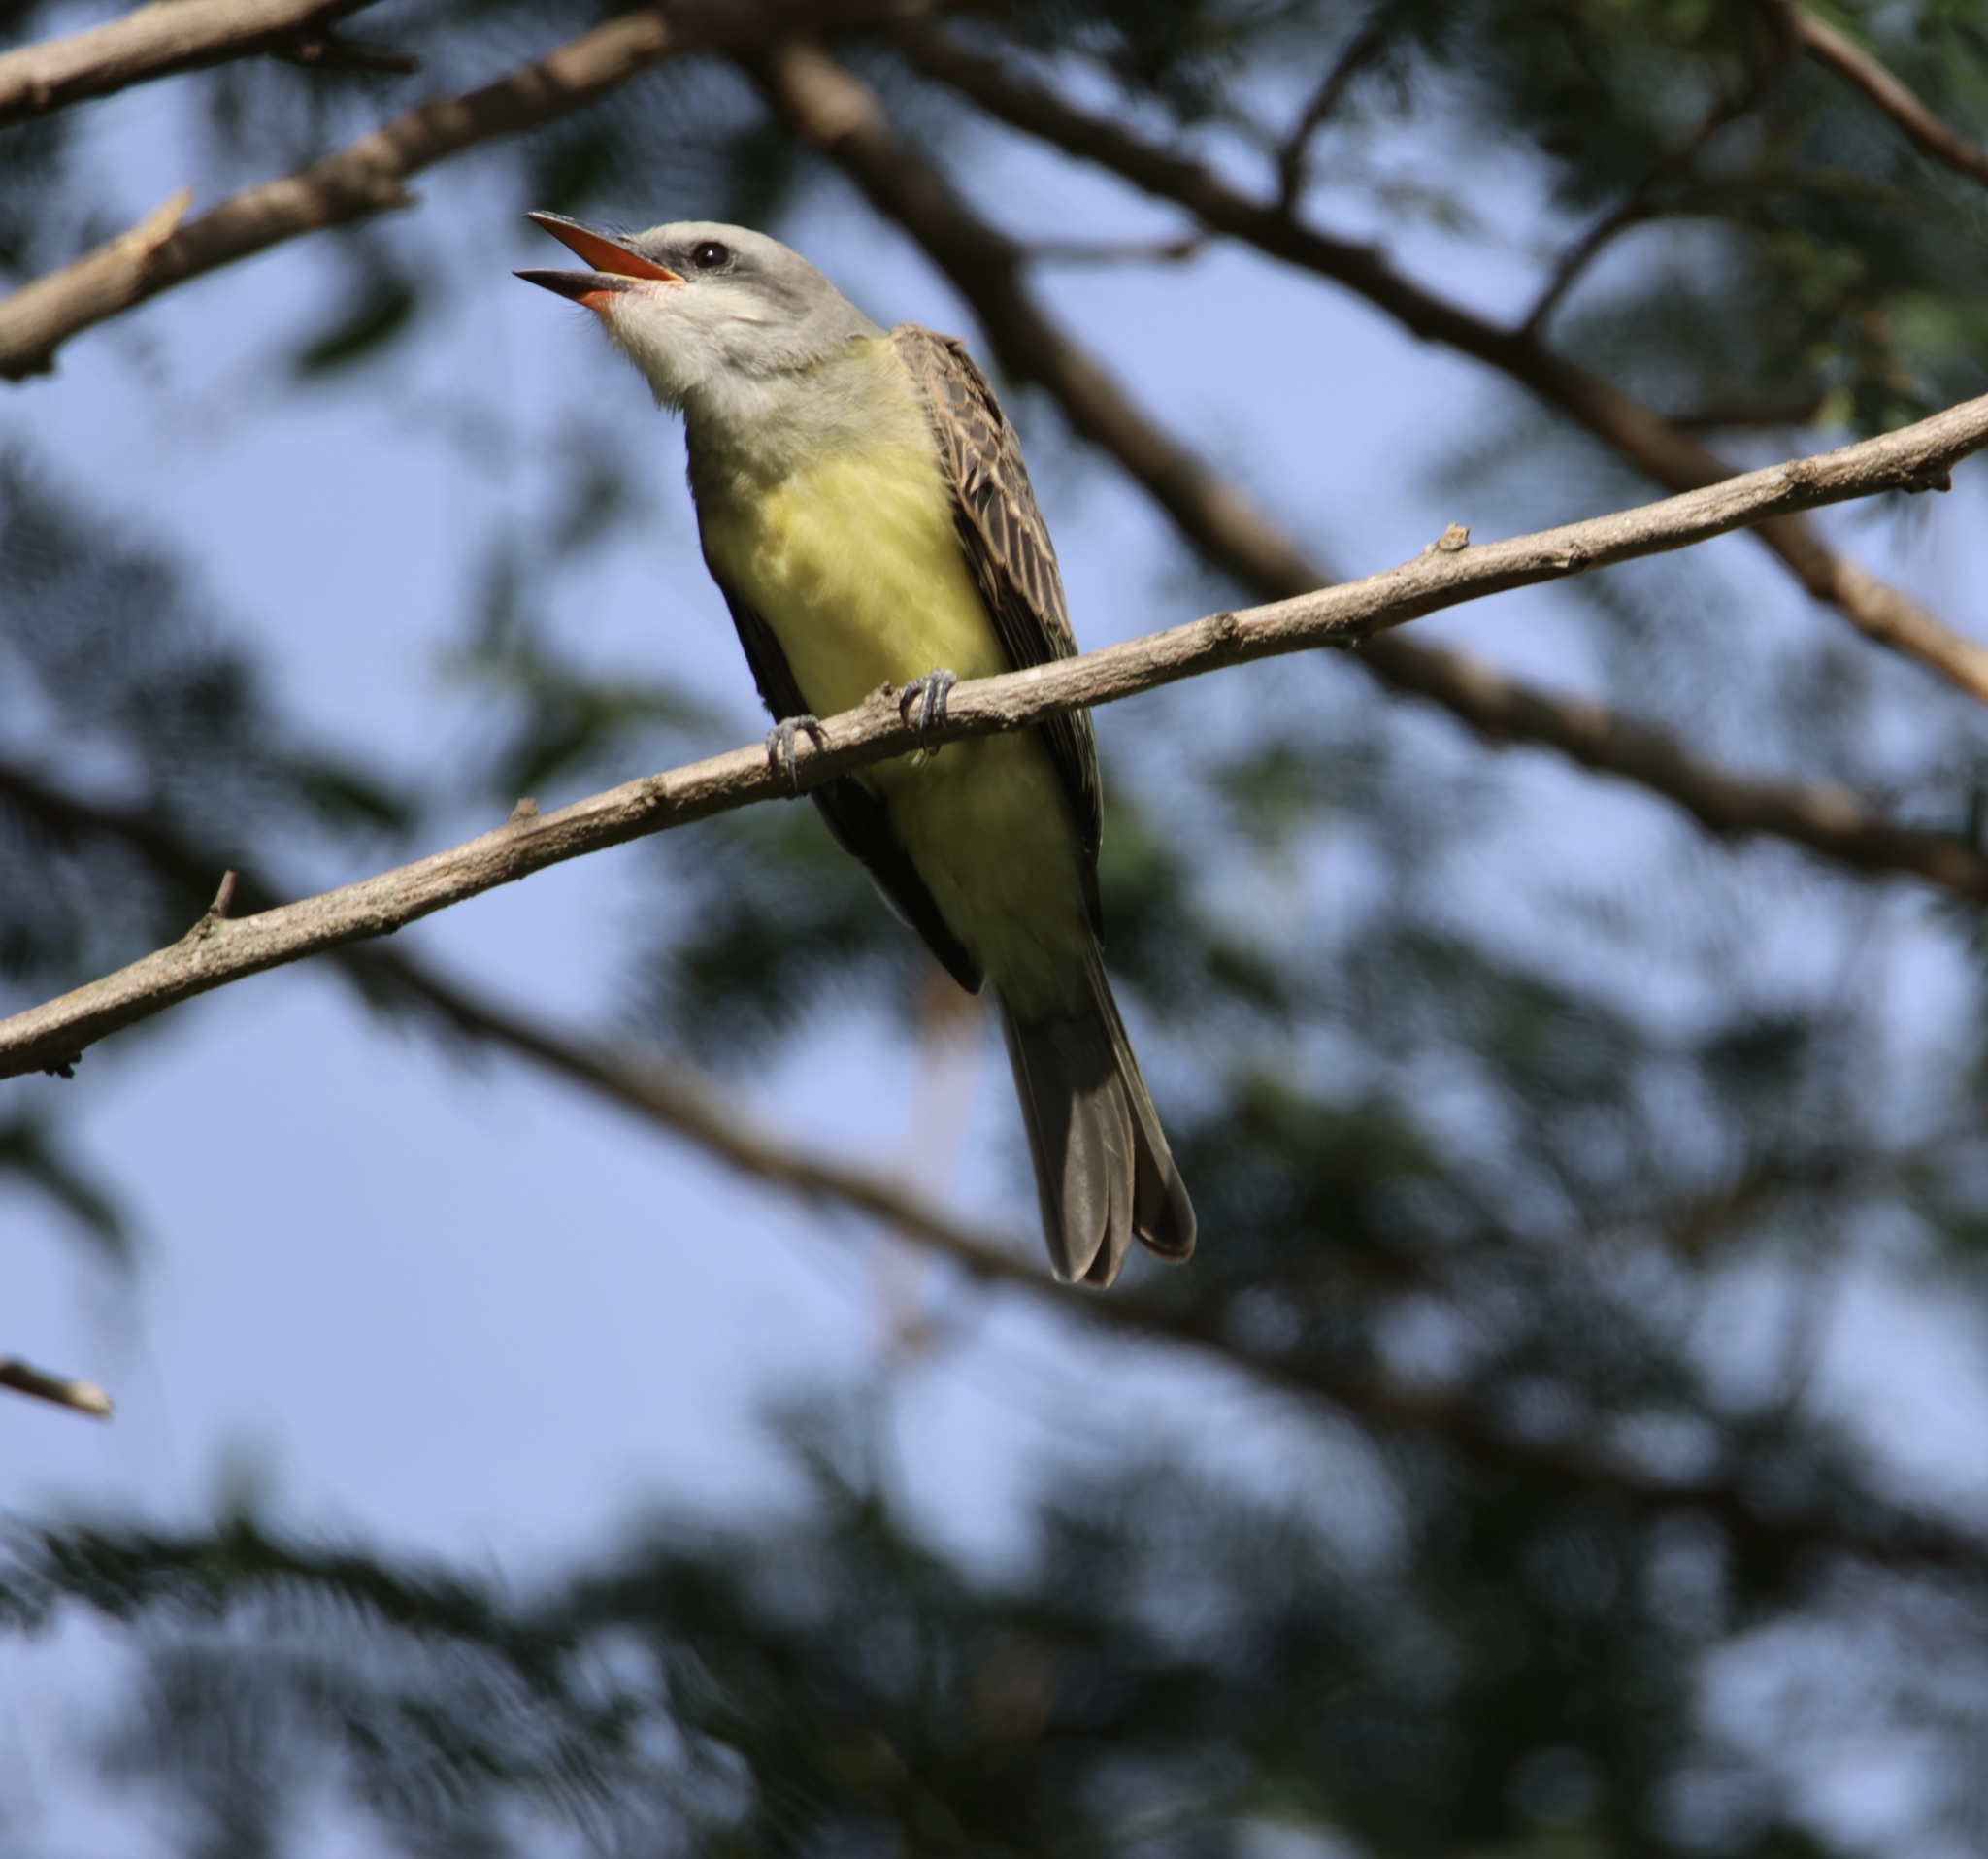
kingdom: Animalia
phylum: Chordata
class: Aves
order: Passeriformes
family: Tyrannidae
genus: Tyrannus
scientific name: Tyrannus melancholicus
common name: Tropical kingbird
